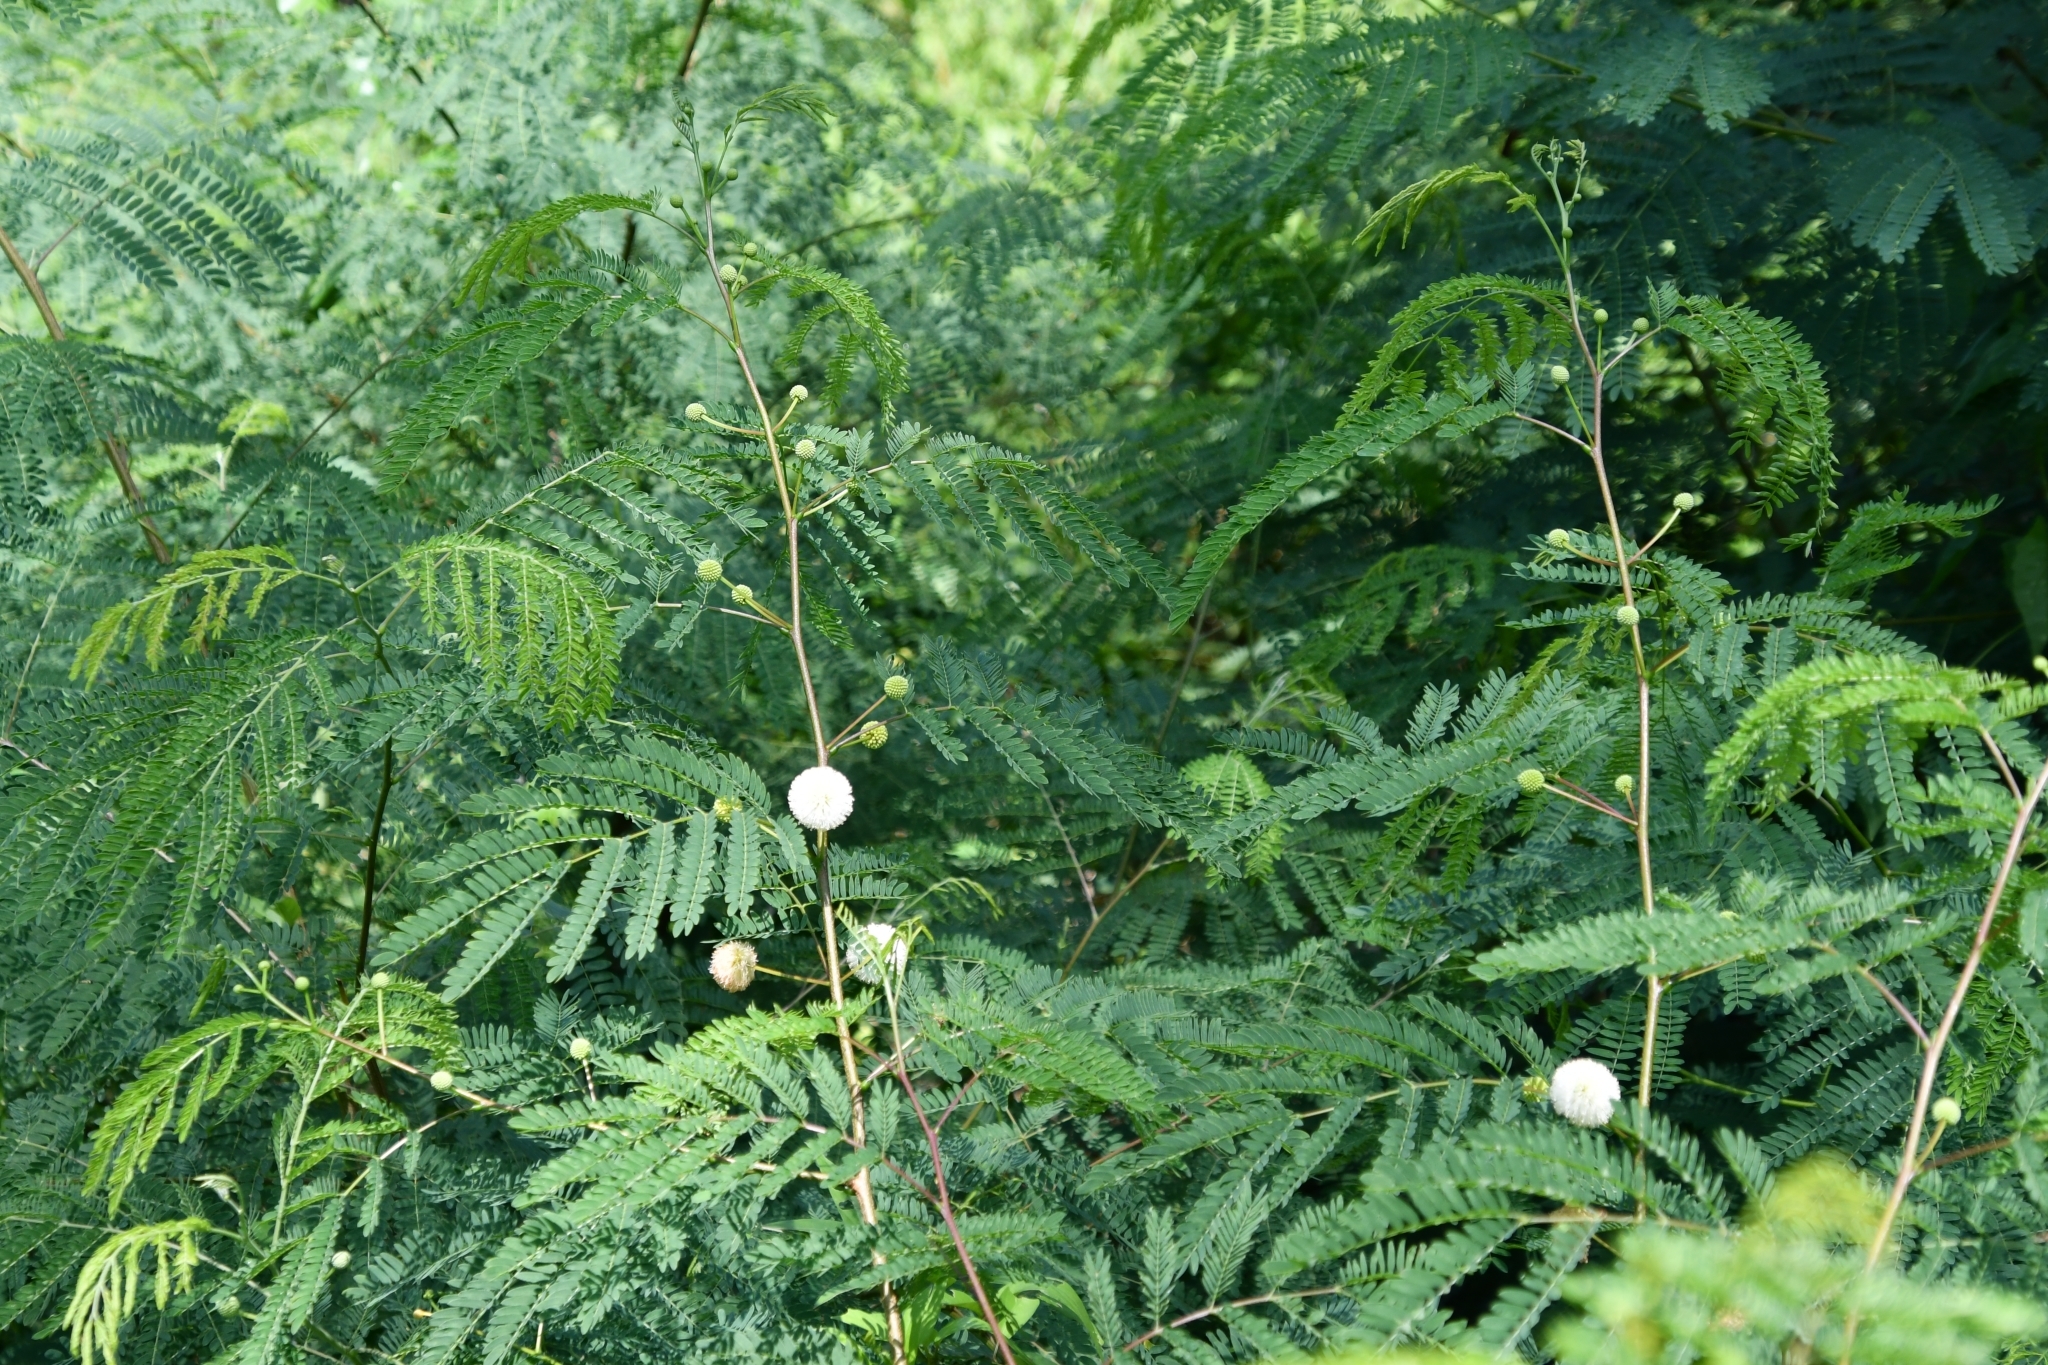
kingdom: Plantae
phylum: Tracheophyta
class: Magnoliopsida
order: Fabales
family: Fabaceae
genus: Leucaena
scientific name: Leucaena leucocephala
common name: White leadtree
